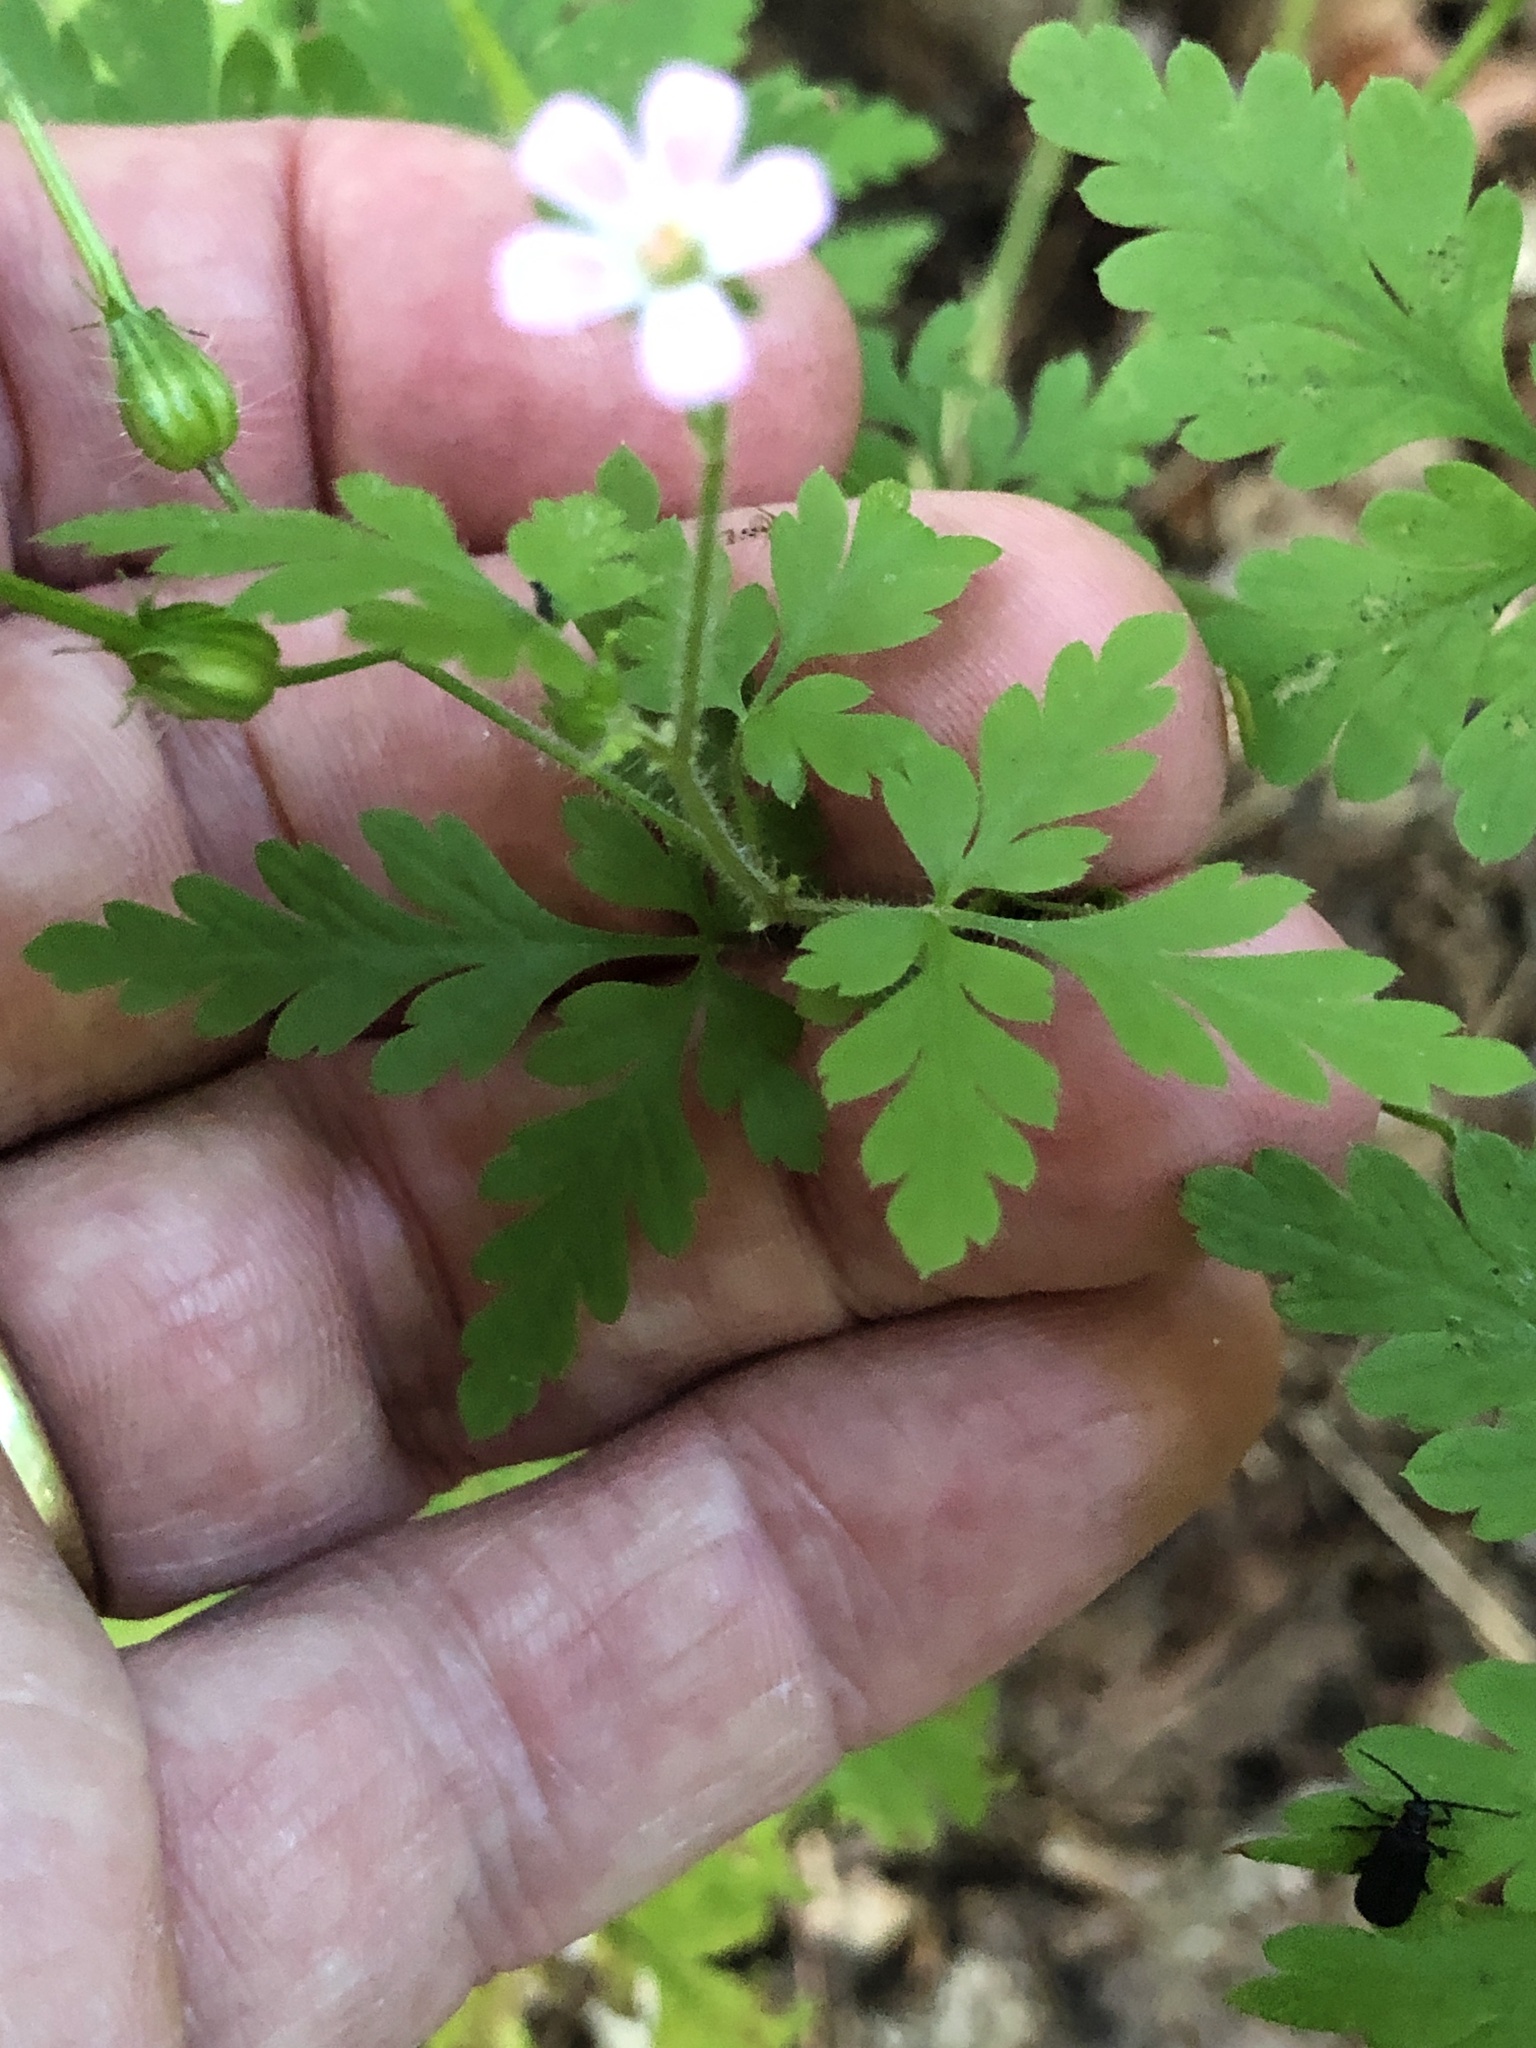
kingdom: Plantae
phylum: Tracheophyta
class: Magnoliopsida
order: Geraniales
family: Geraniaceae
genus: Geranium
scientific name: Geranium robertianum
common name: Herb-robert
